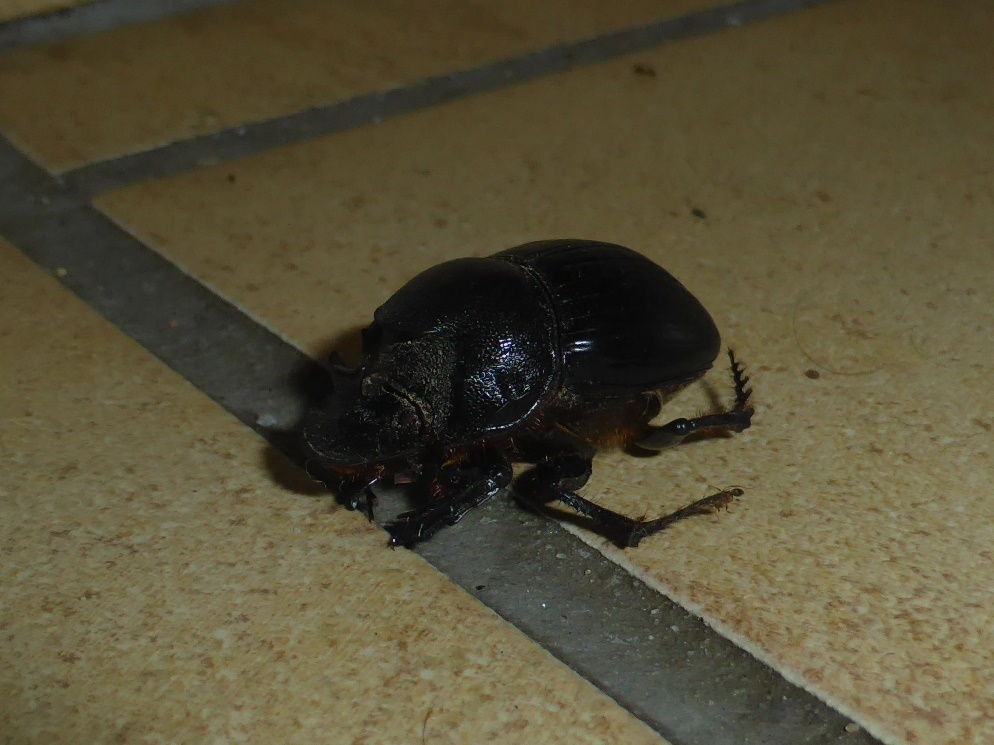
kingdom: Animalia
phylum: Arthropoda
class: Insecta
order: Coleoptera
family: Scarabaeidae
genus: Copris
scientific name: Copris elphenor
